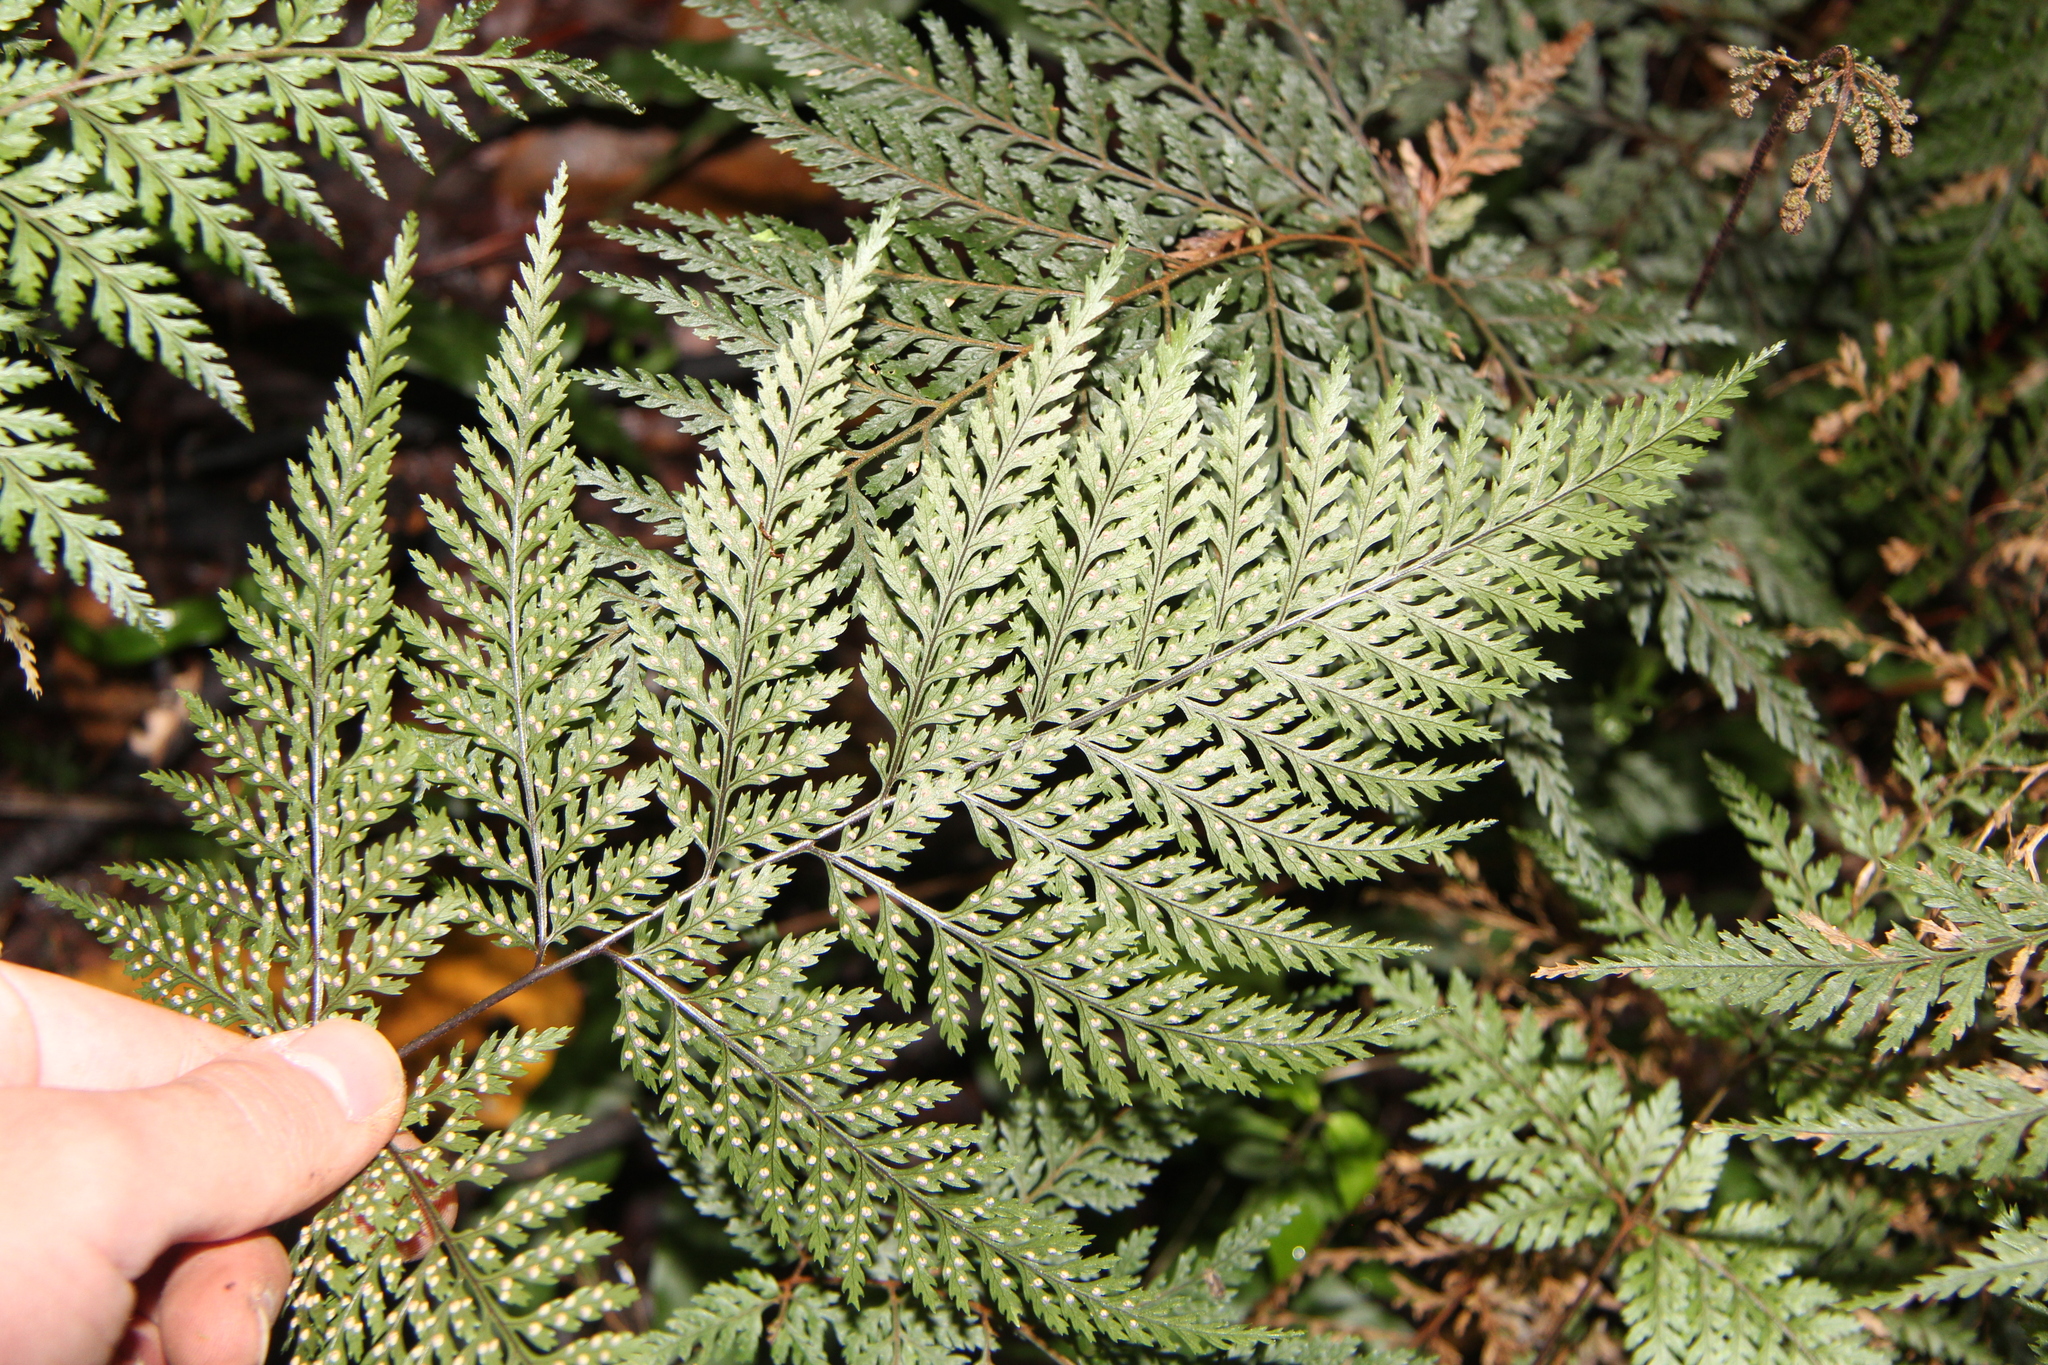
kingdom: Plantae
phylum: Tracheophyta
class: Polypodiopsida
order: Polypodiales
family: Dryopteridaceae
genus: Parapolystichum
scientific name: Parapolystichum glabellum
